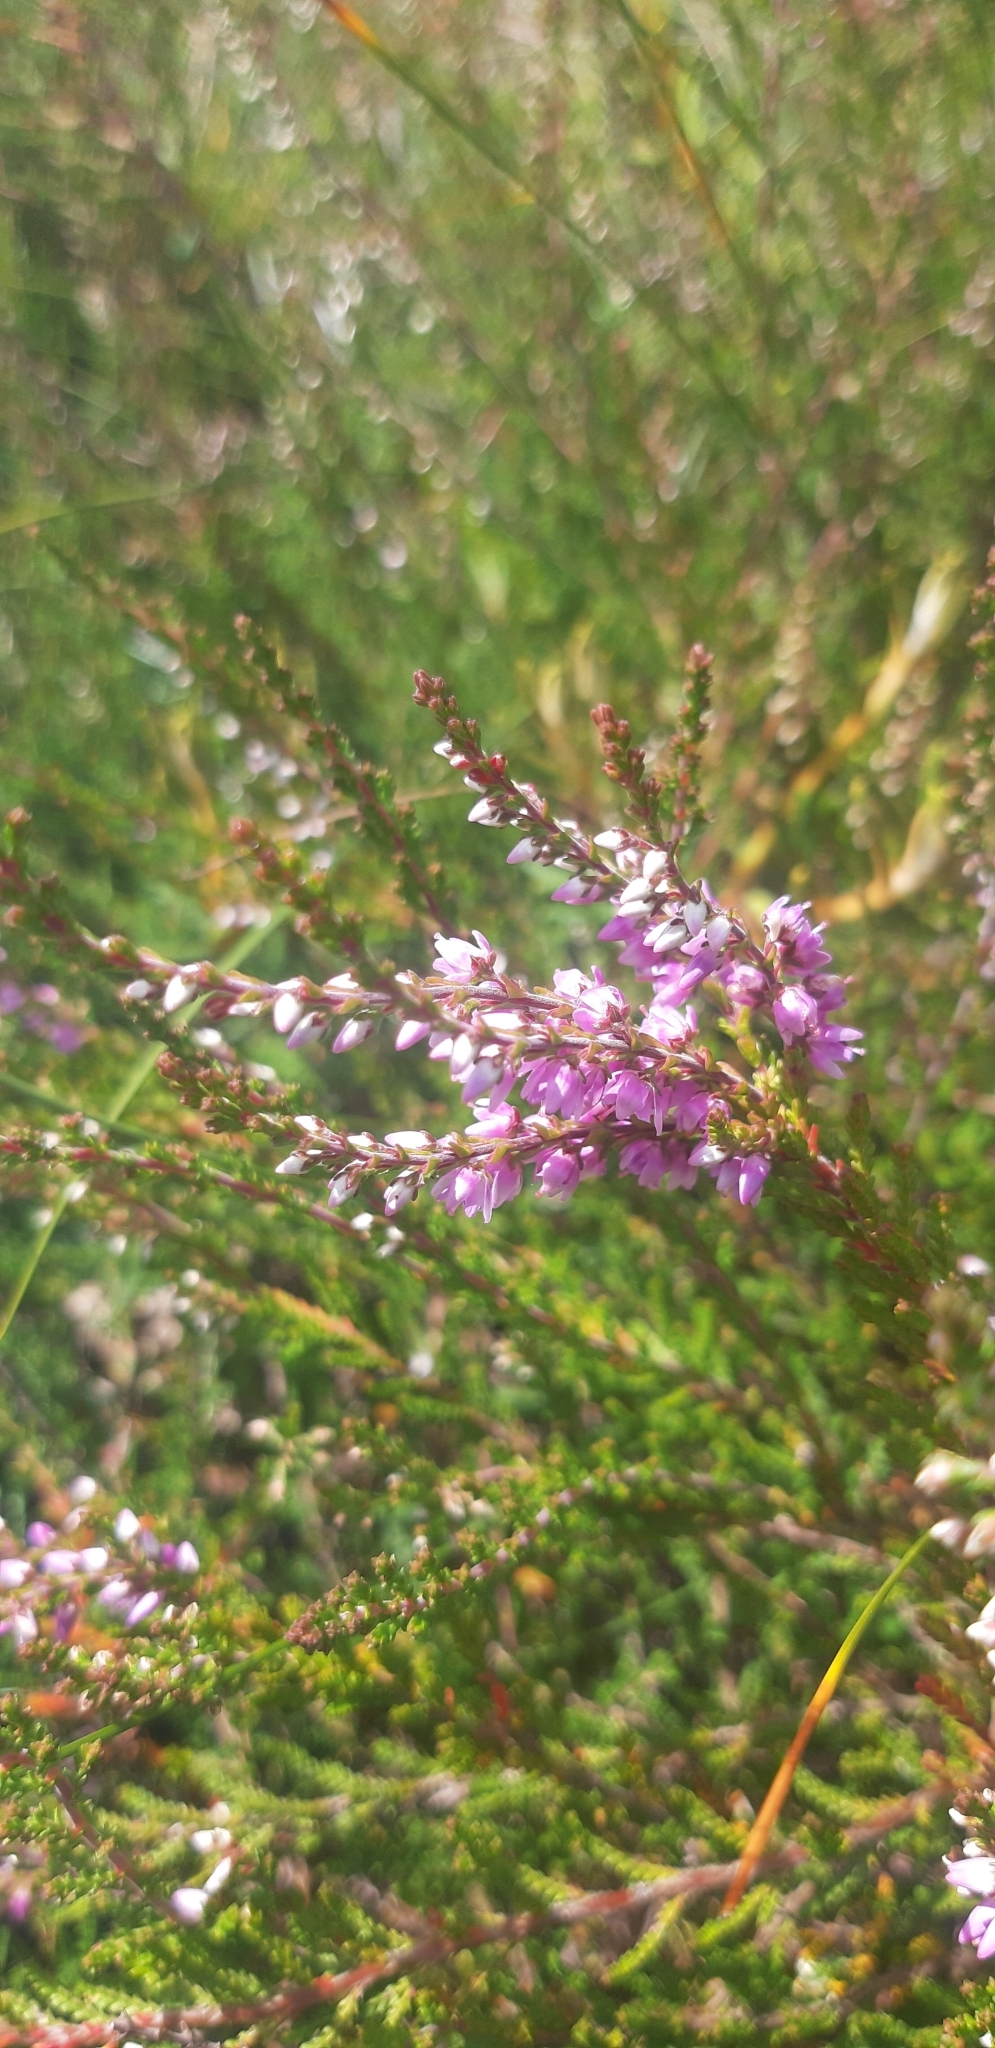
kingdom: Plantae
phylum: Tracheophyta
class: Magnoliopsida
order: Ericales
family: Ericaceae
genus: Calluna
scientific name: Calluna vulgaris
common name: Heather
